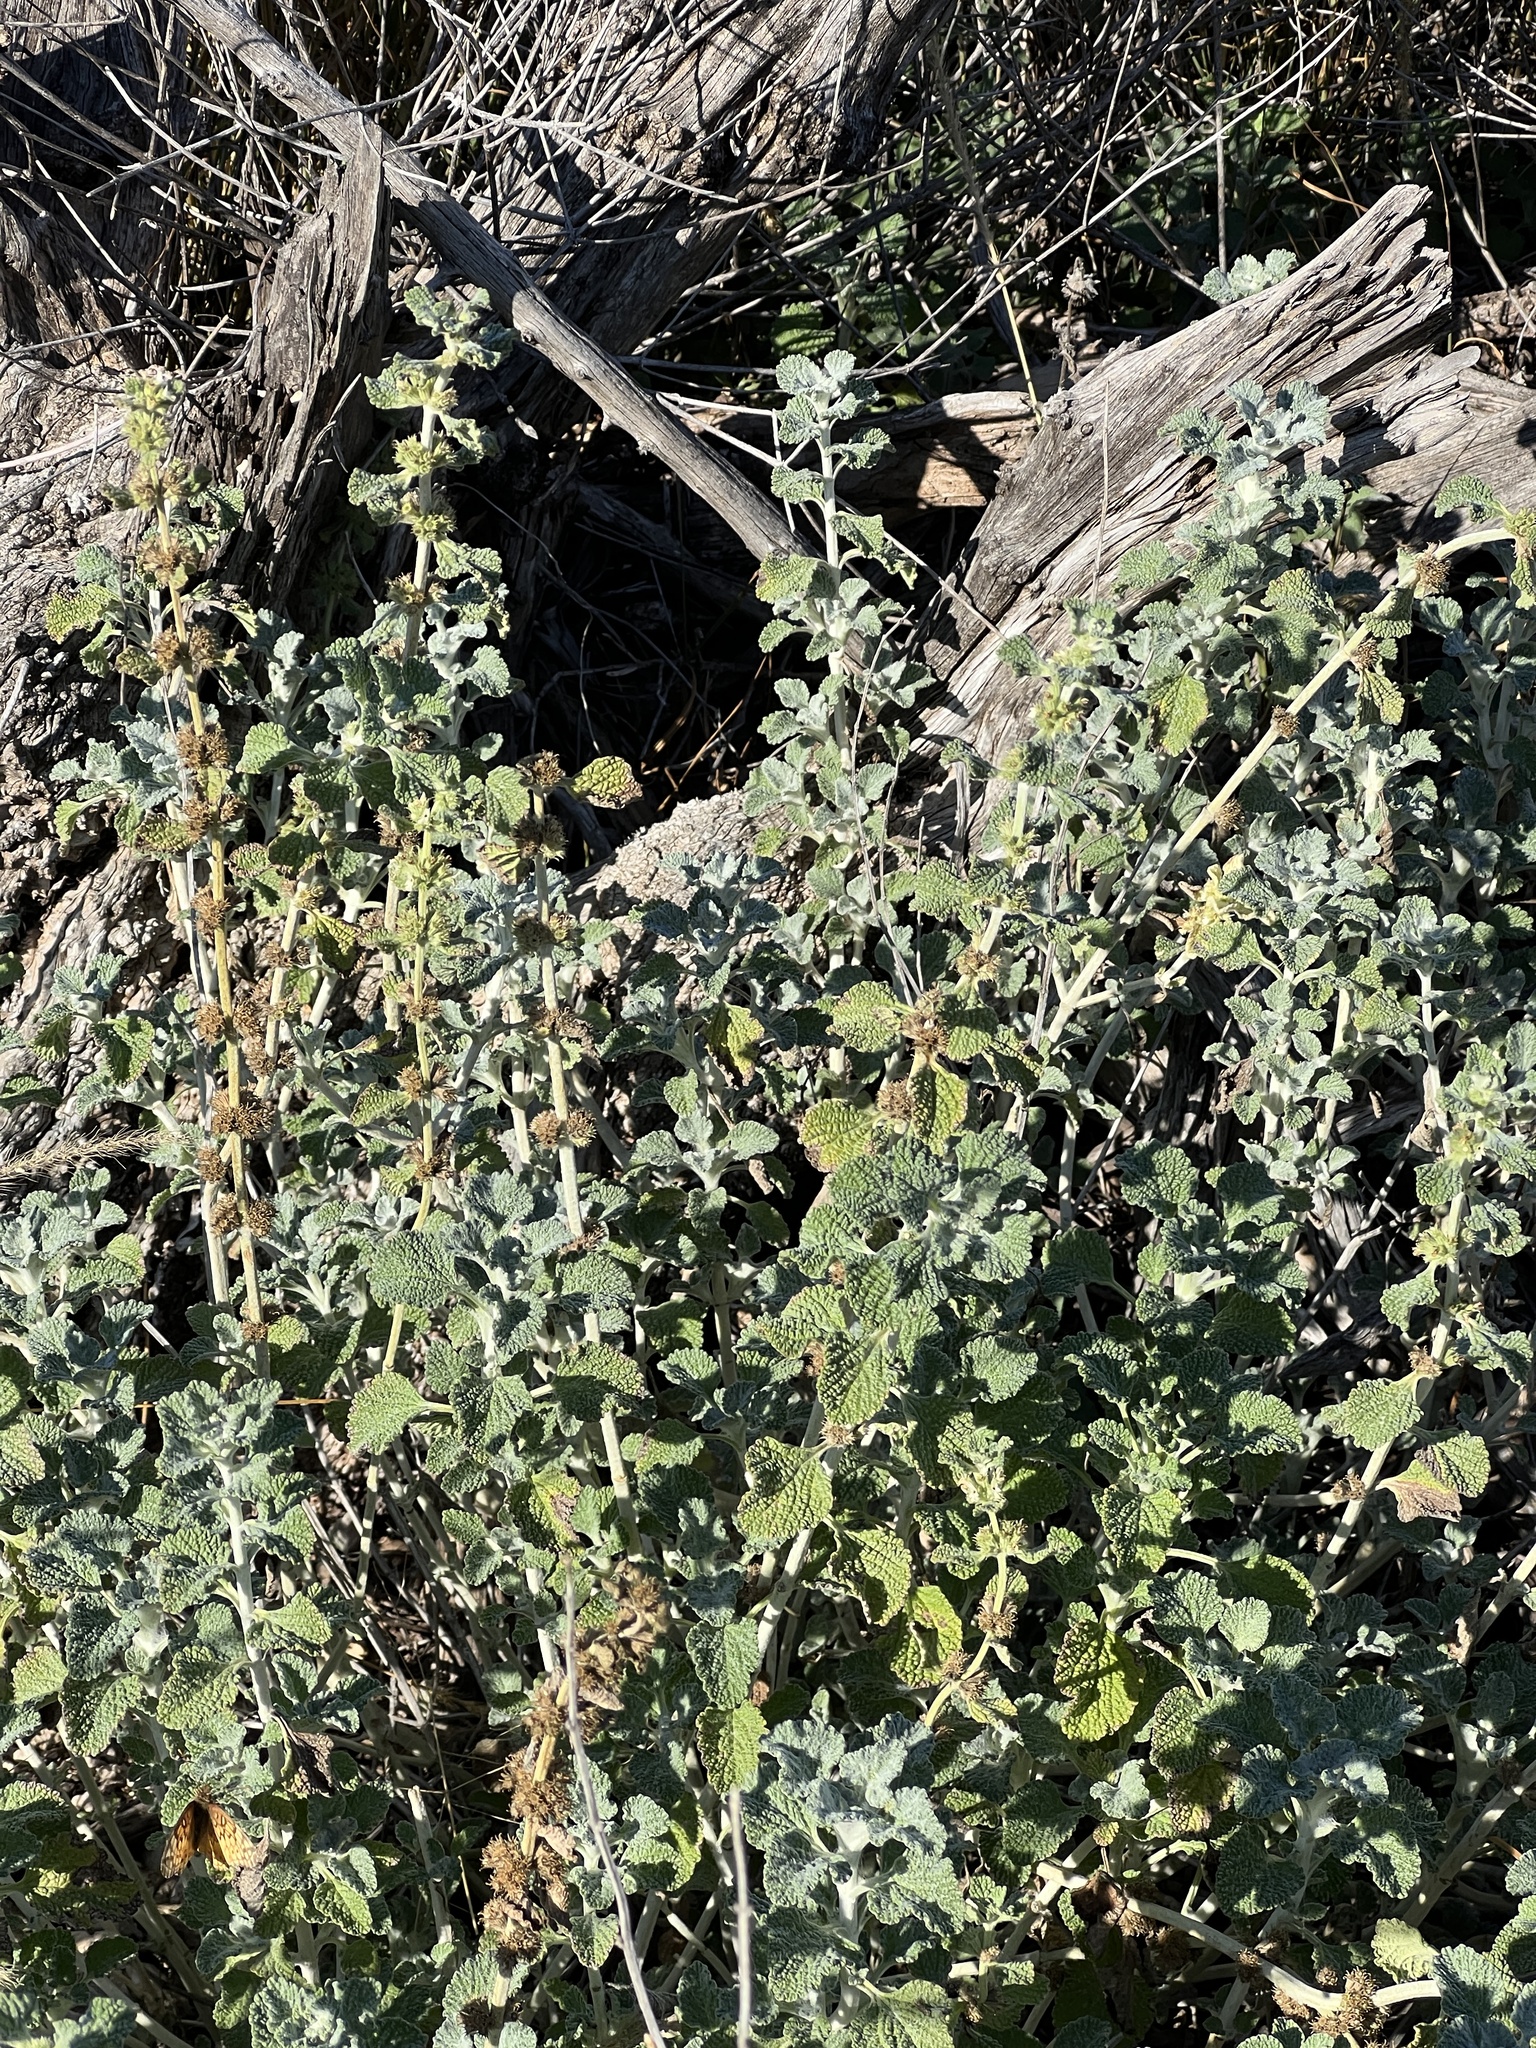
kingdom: Plantae
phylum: Tracheophyta
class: Magnoliopsida
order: Lamiales
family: Lamiaceae
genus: Marrubium
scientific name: Marrubium vulgare
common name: Horehound
